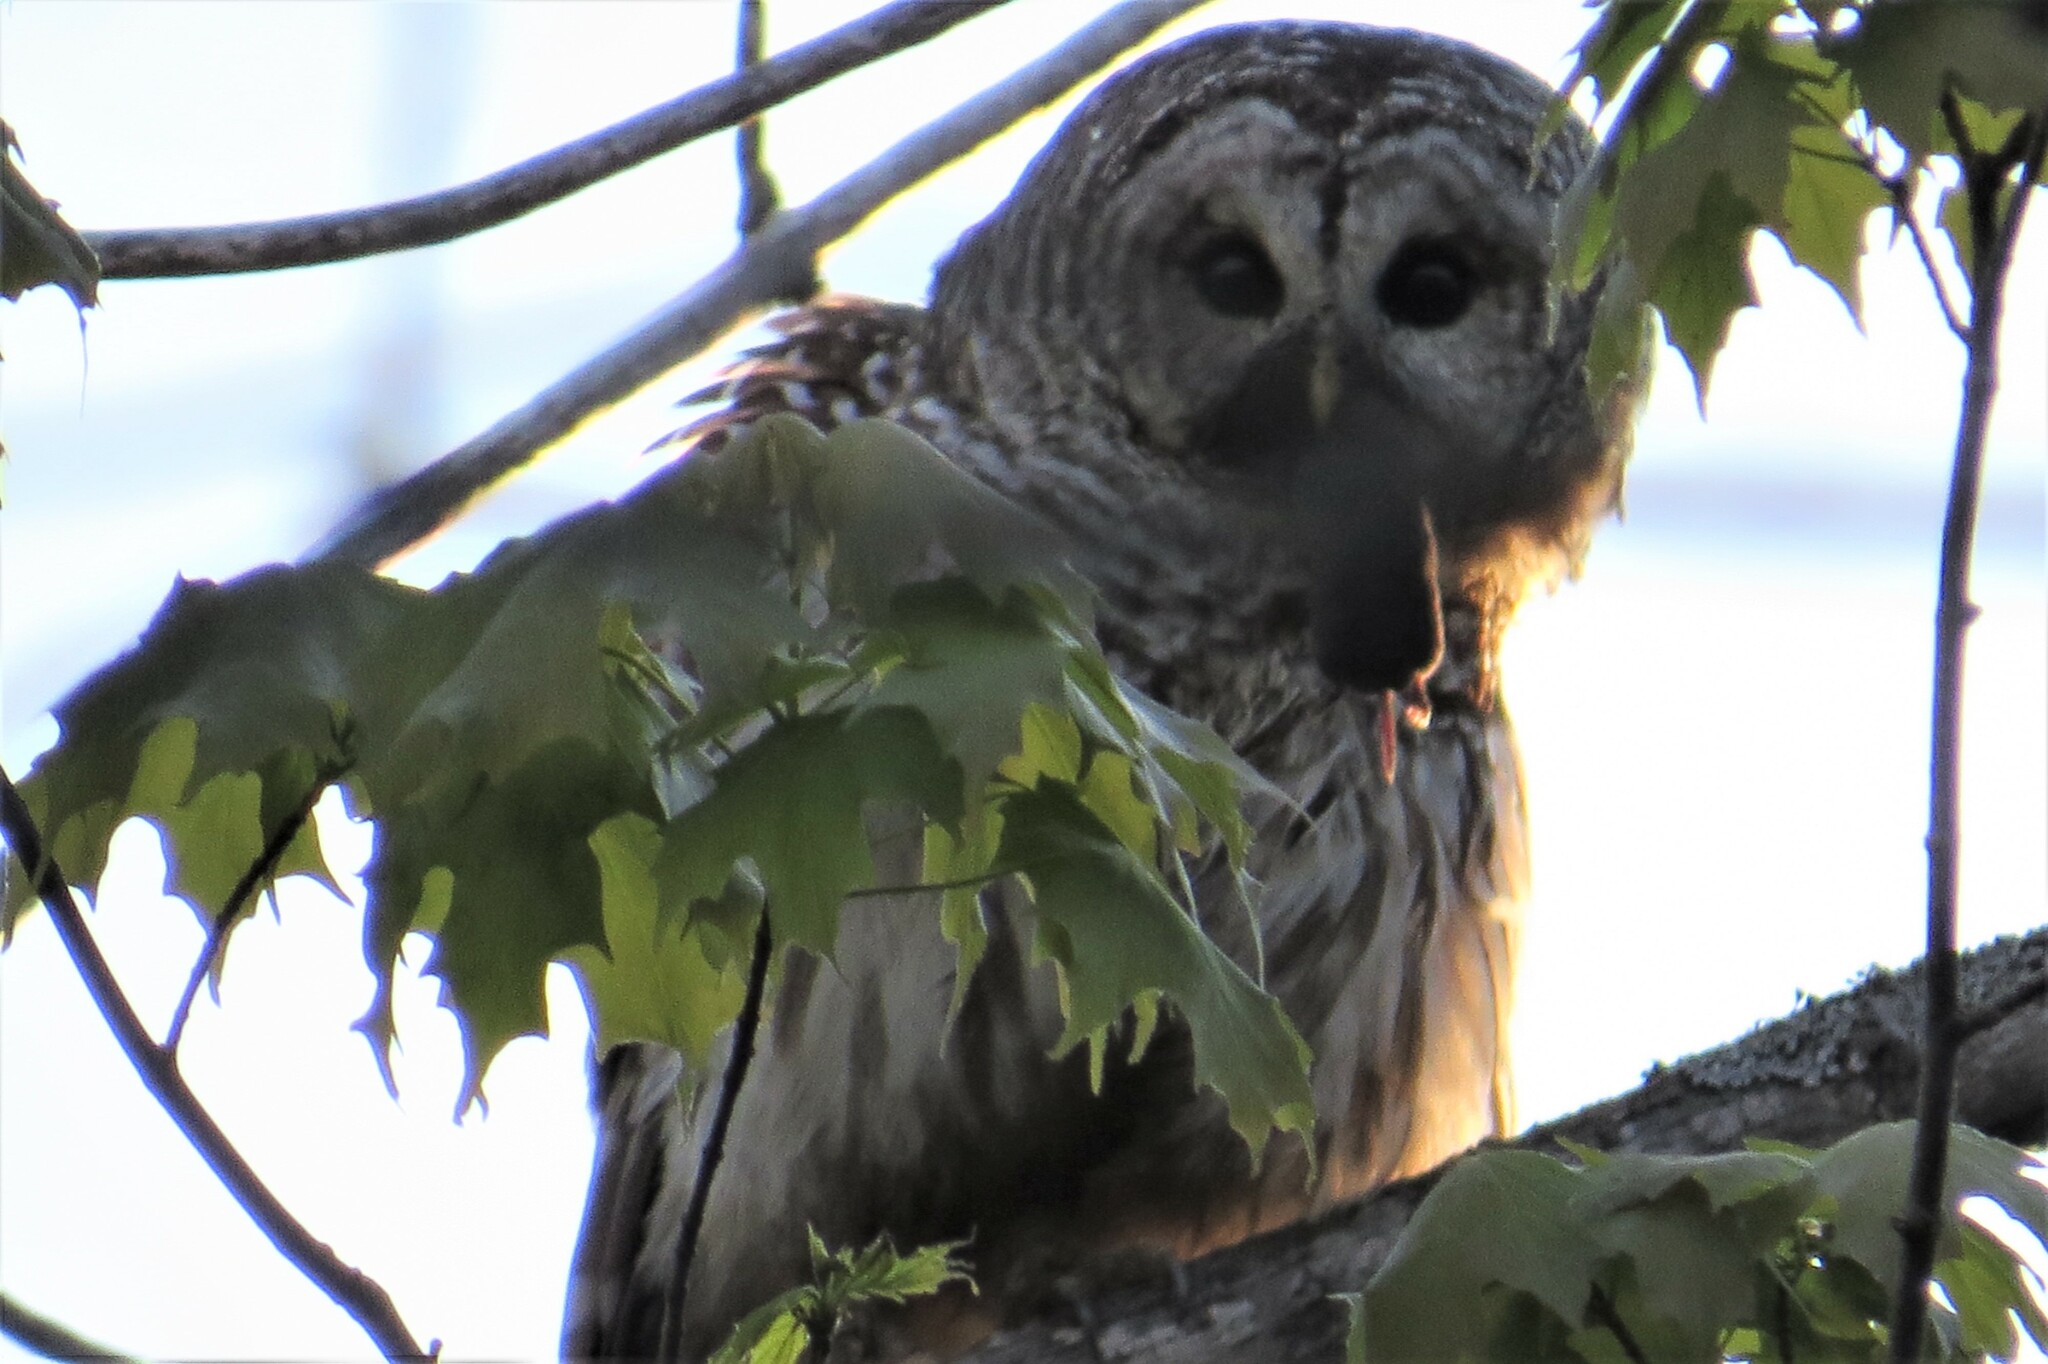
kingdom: Animalia
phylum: Chordata
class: Aves
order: Strigiformes
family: Strigidae
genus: Strix
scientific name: Strix varia
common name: Barred owl
